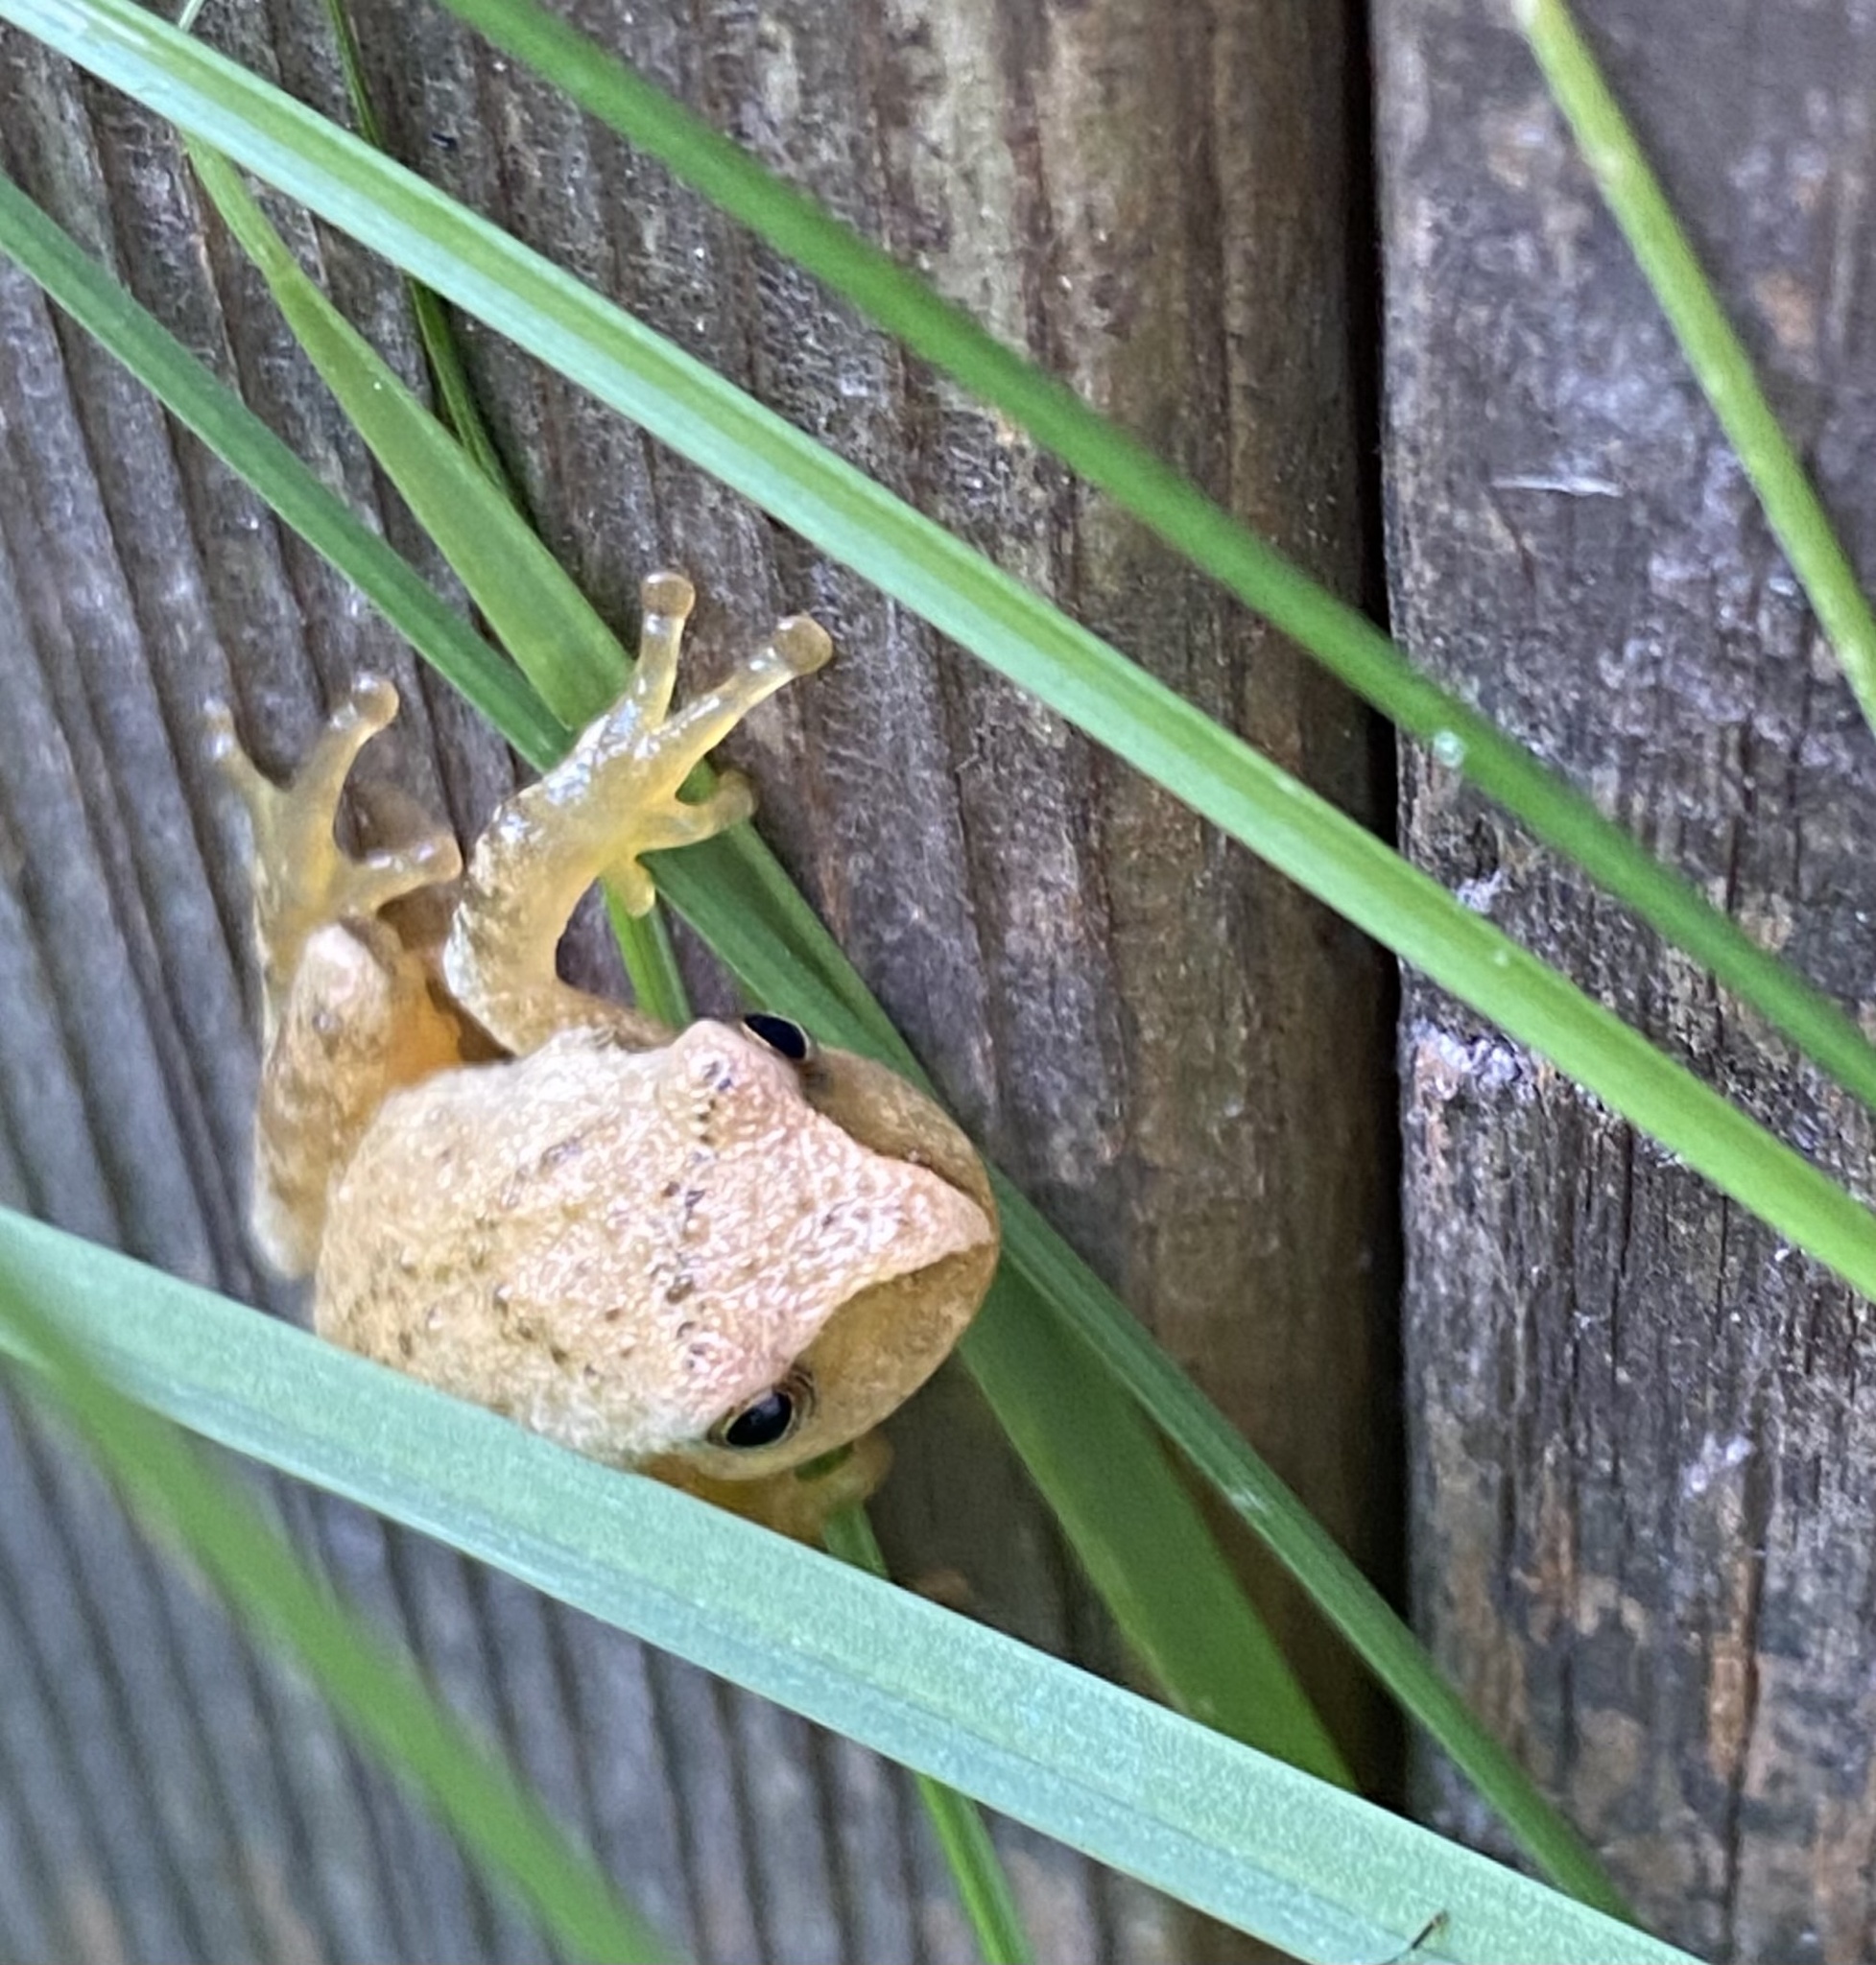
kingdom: Animalia
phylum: Chordata
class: Amphibia
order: Anura
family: Hylidae
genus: Pseudacris
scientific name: Pseudacris crucifer
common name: Spring peeper
